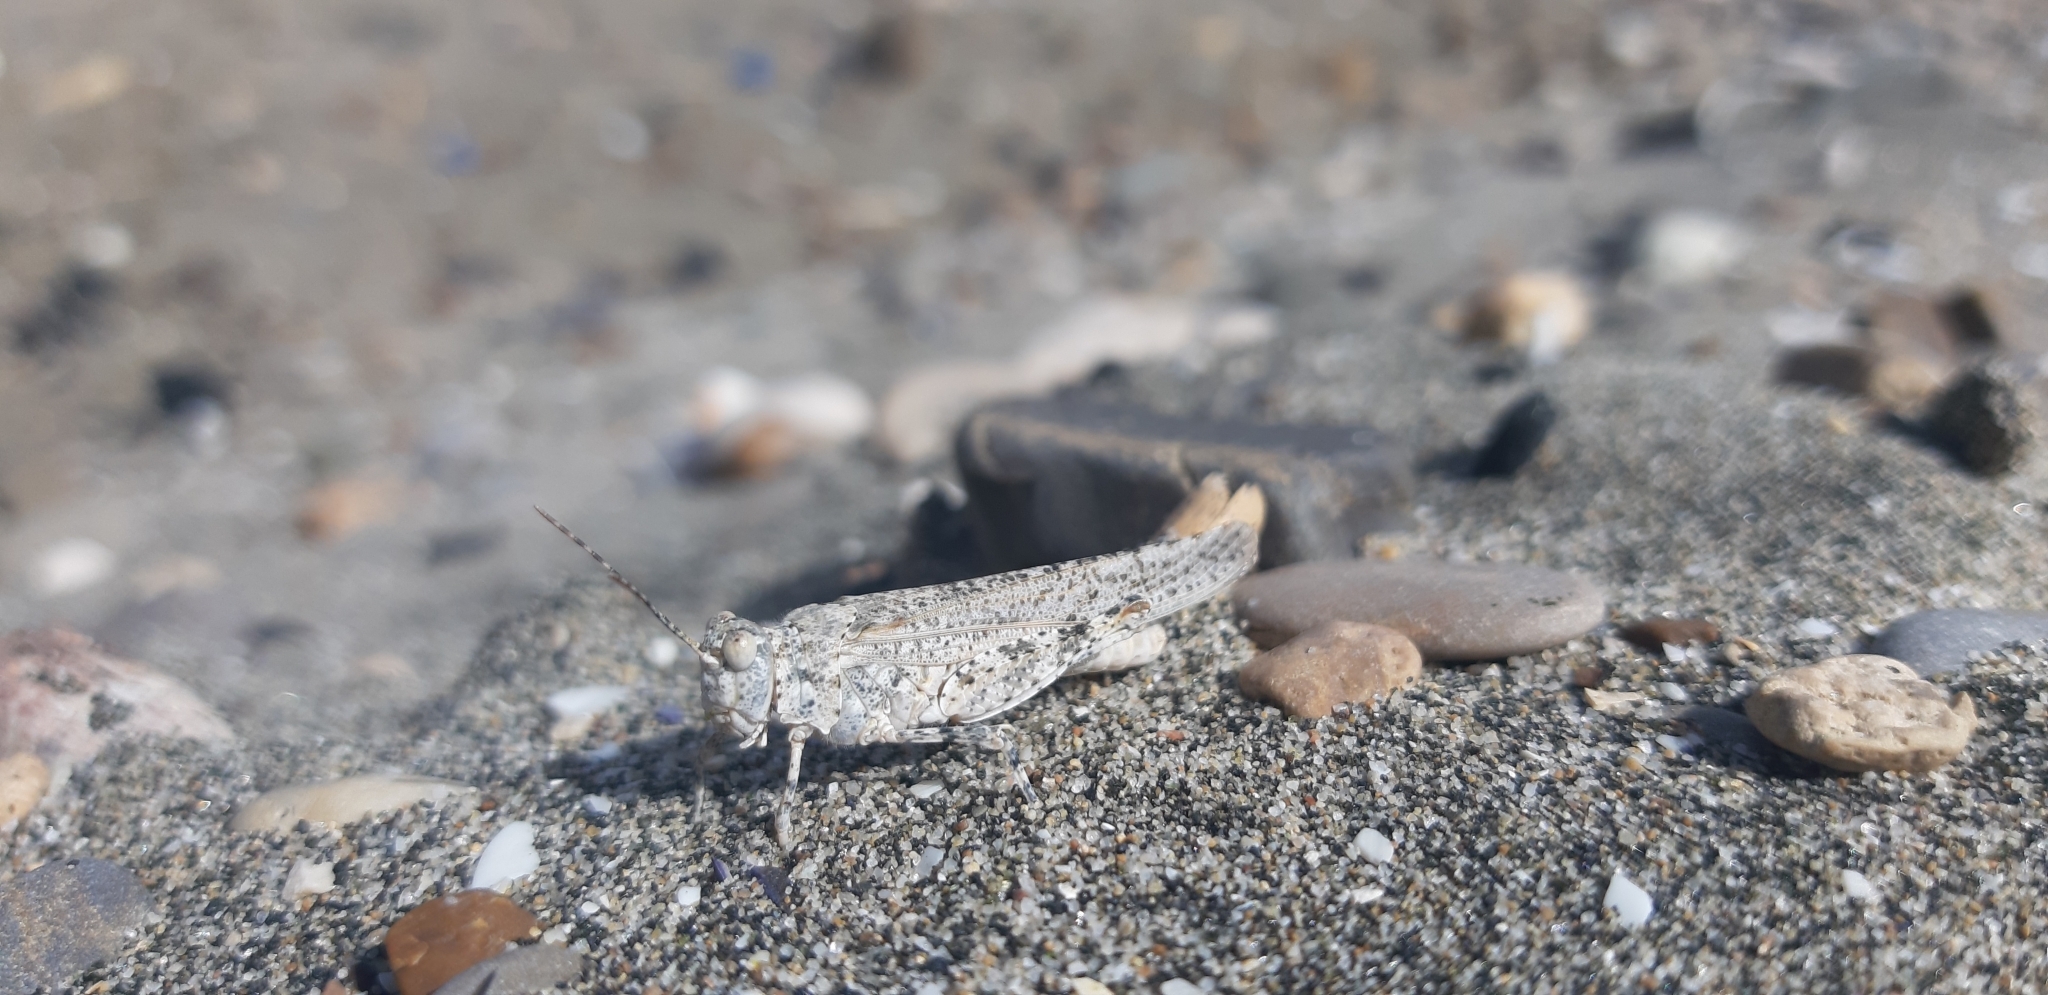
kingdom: Animalia
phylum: Arthropoda
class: Insecta
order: Orthoptera
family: Acrididae
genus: Sphingonotus
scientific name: Sphingonotus personatus
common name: Italian sand grasshopper
